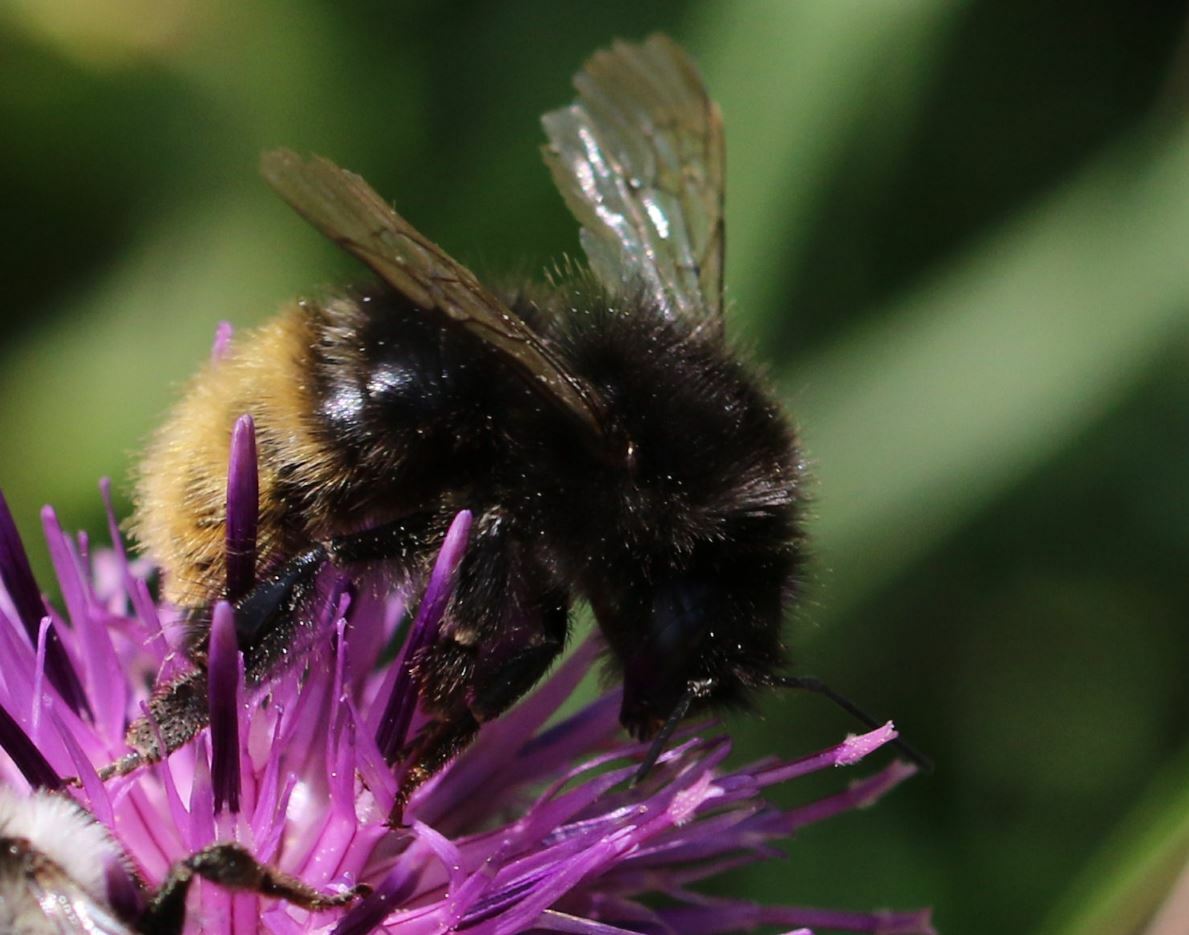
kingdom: Animalia
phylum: Arthropoda
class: Insecta
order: Hymenoptera
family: Apidae
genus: Bombus
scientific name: Bombus wurflenii
